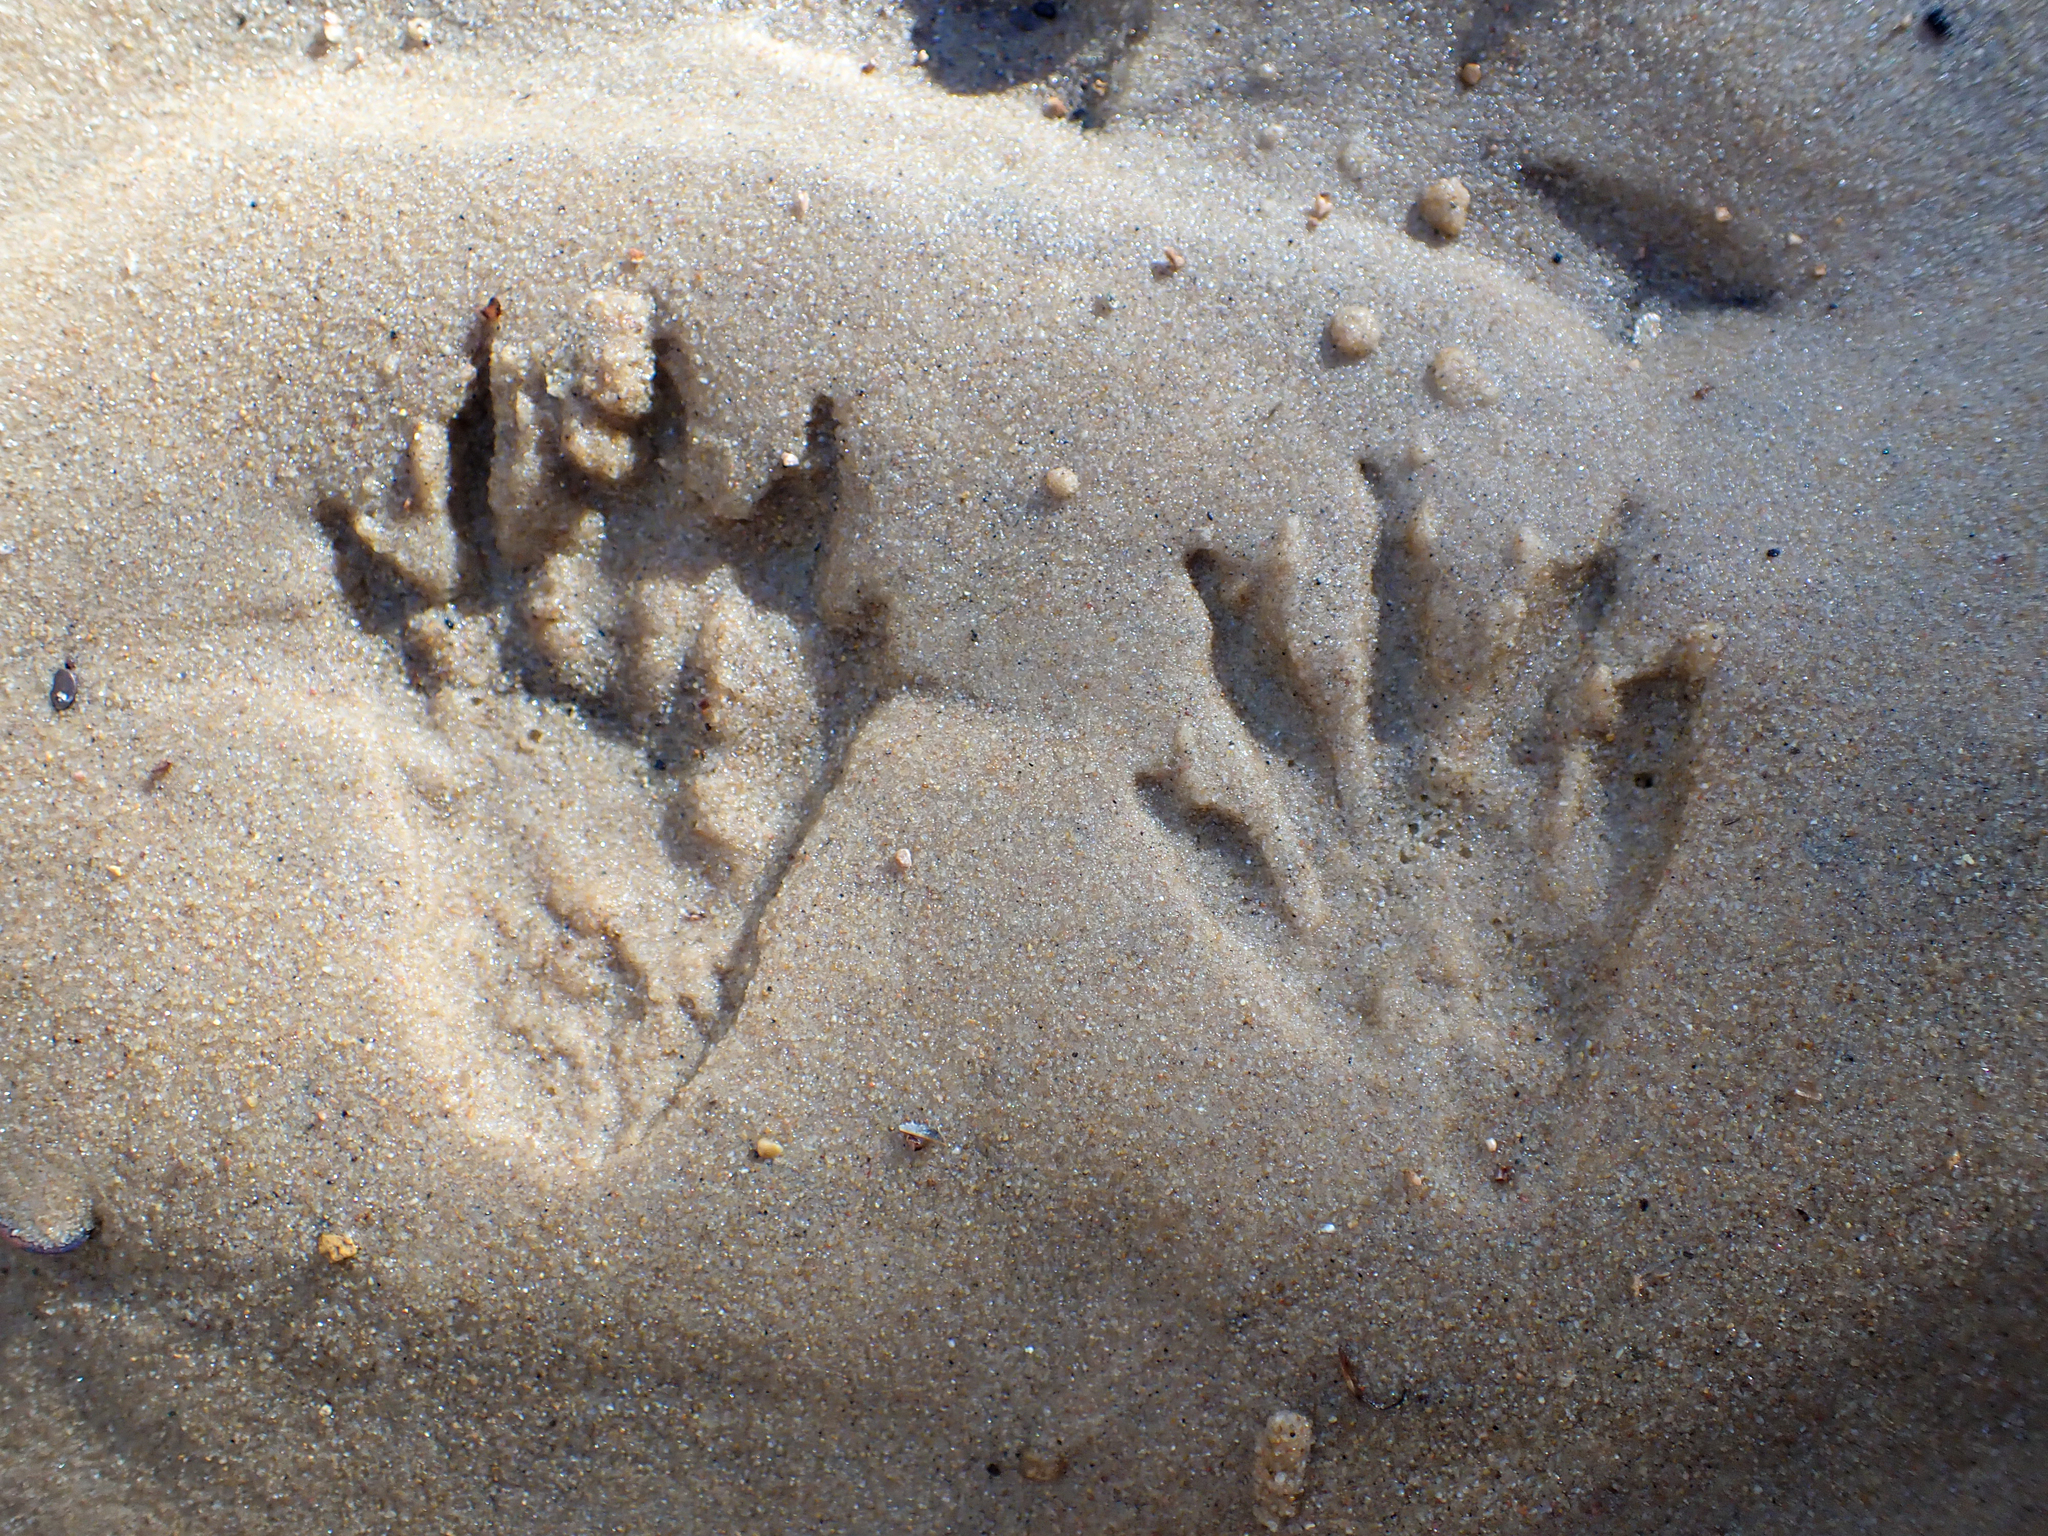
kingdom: Animalia
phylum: Chordata
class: Mammalia
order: Carnivora
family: Procyonidae
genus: Procyon
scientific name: Procyon lotor
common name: Raccoon
